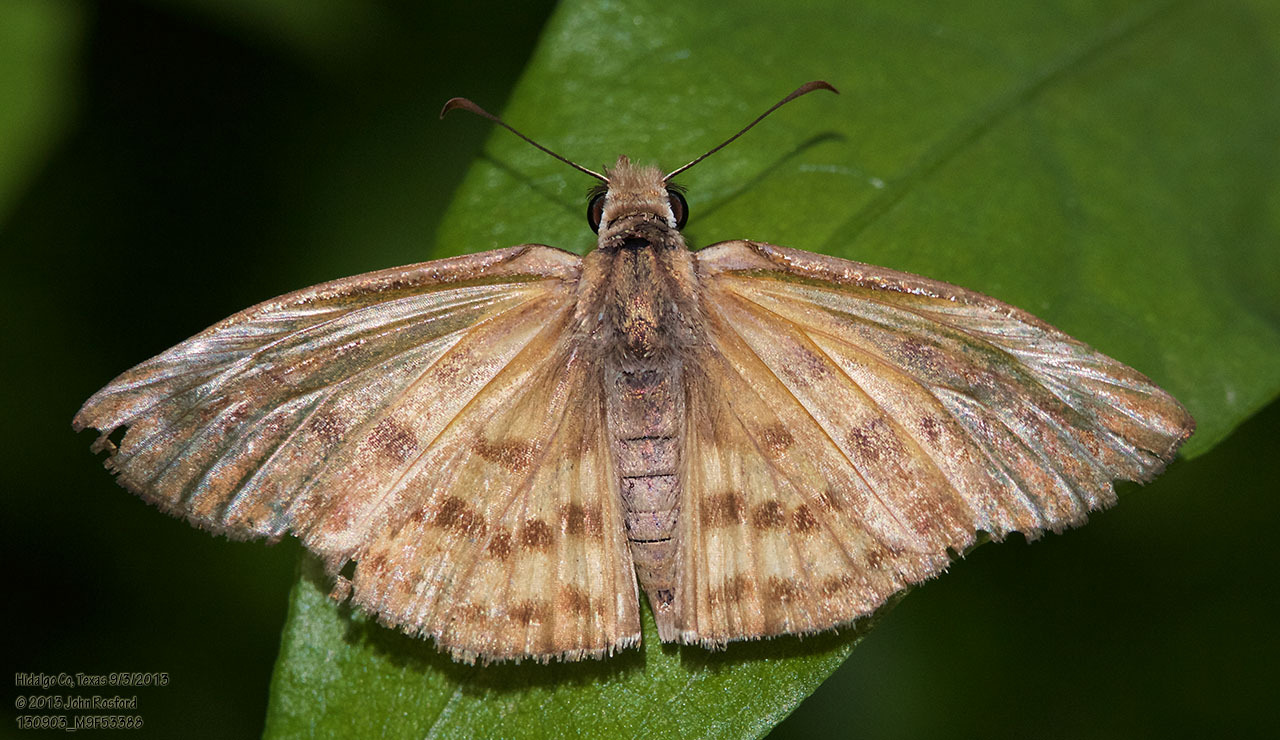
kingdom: Animalia
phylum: Arthropoda
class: Insecta
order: Lepidoptera
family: Hesperiidae
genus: Timochares
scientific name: Timochares ruptifasciata
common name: Brown-banded skipper
